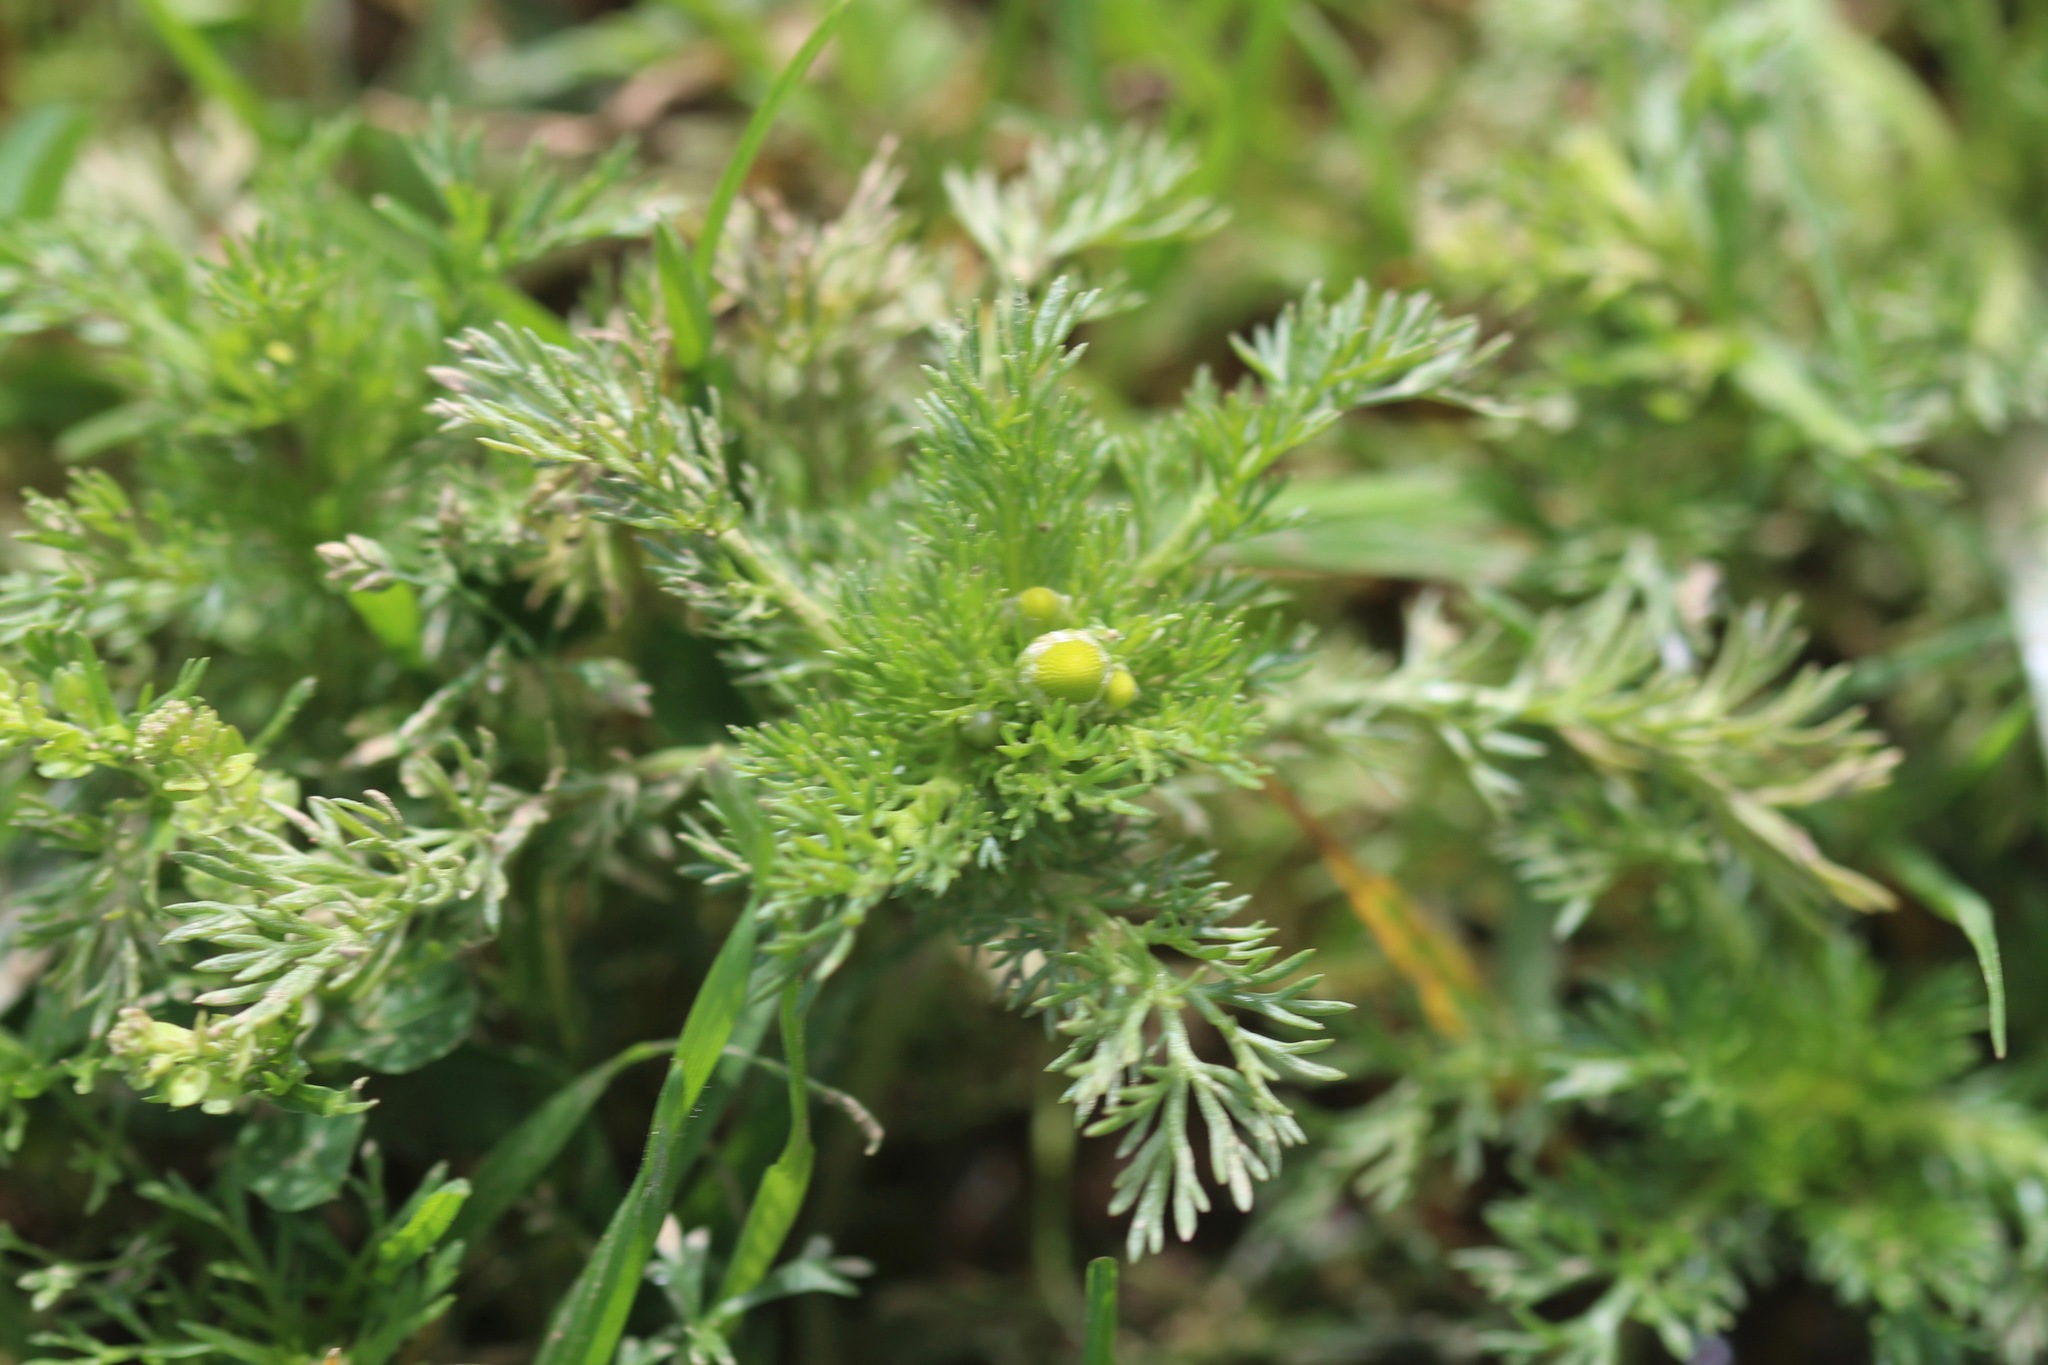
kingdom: Plantae
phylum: Tracheophyta
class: Magnoliopsida
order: Asterales
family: Asteraceae
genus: Matricaria
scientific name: Matricaria discoidea
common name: Disc mayweed
